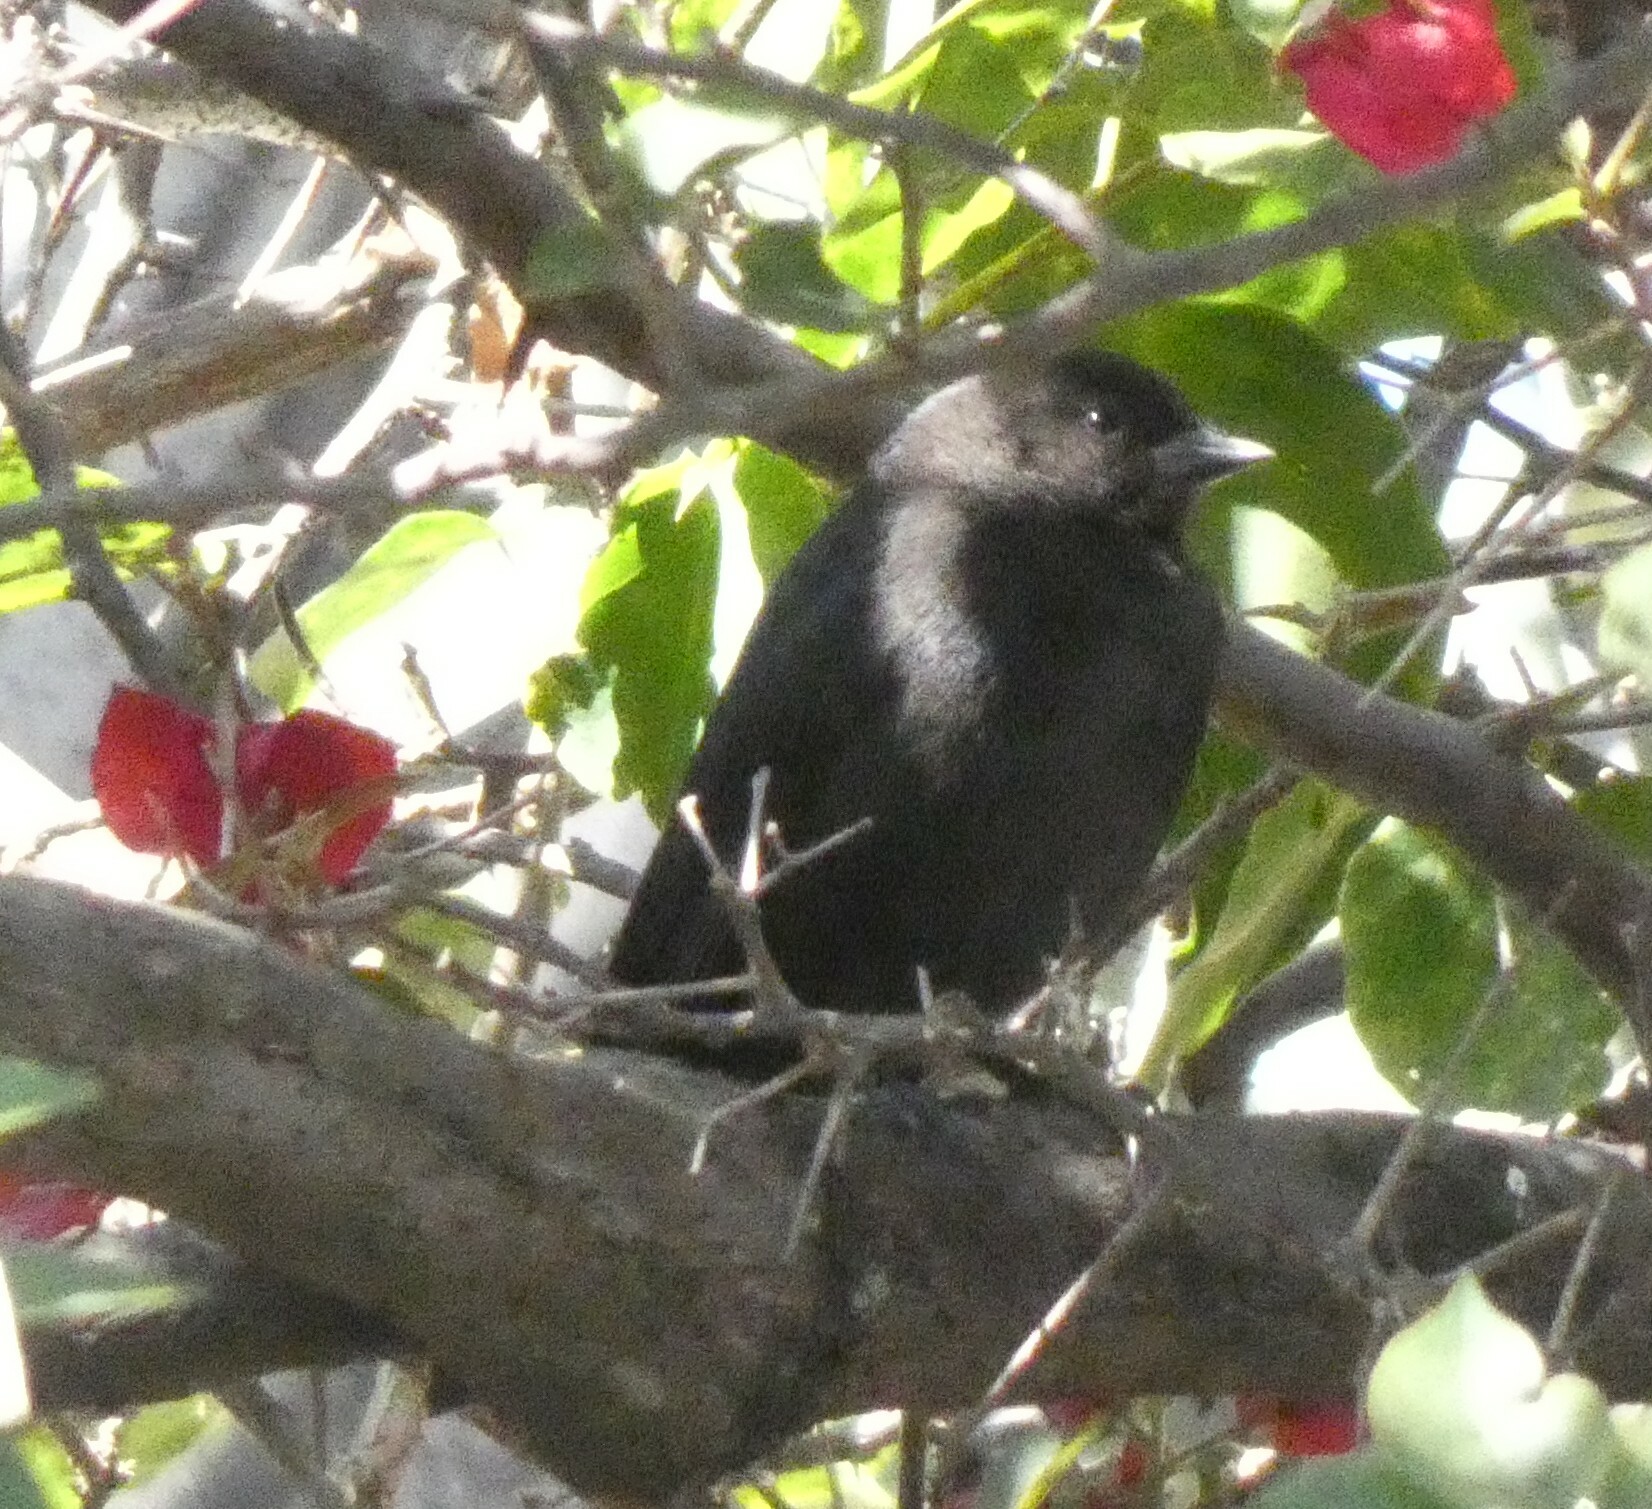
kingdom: Animalia
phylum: Chordata
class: Aves
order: Passeriformes
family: Icteridae
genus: Molothrus
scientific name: Molothrus bonariensis
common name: Shiny cowbird
